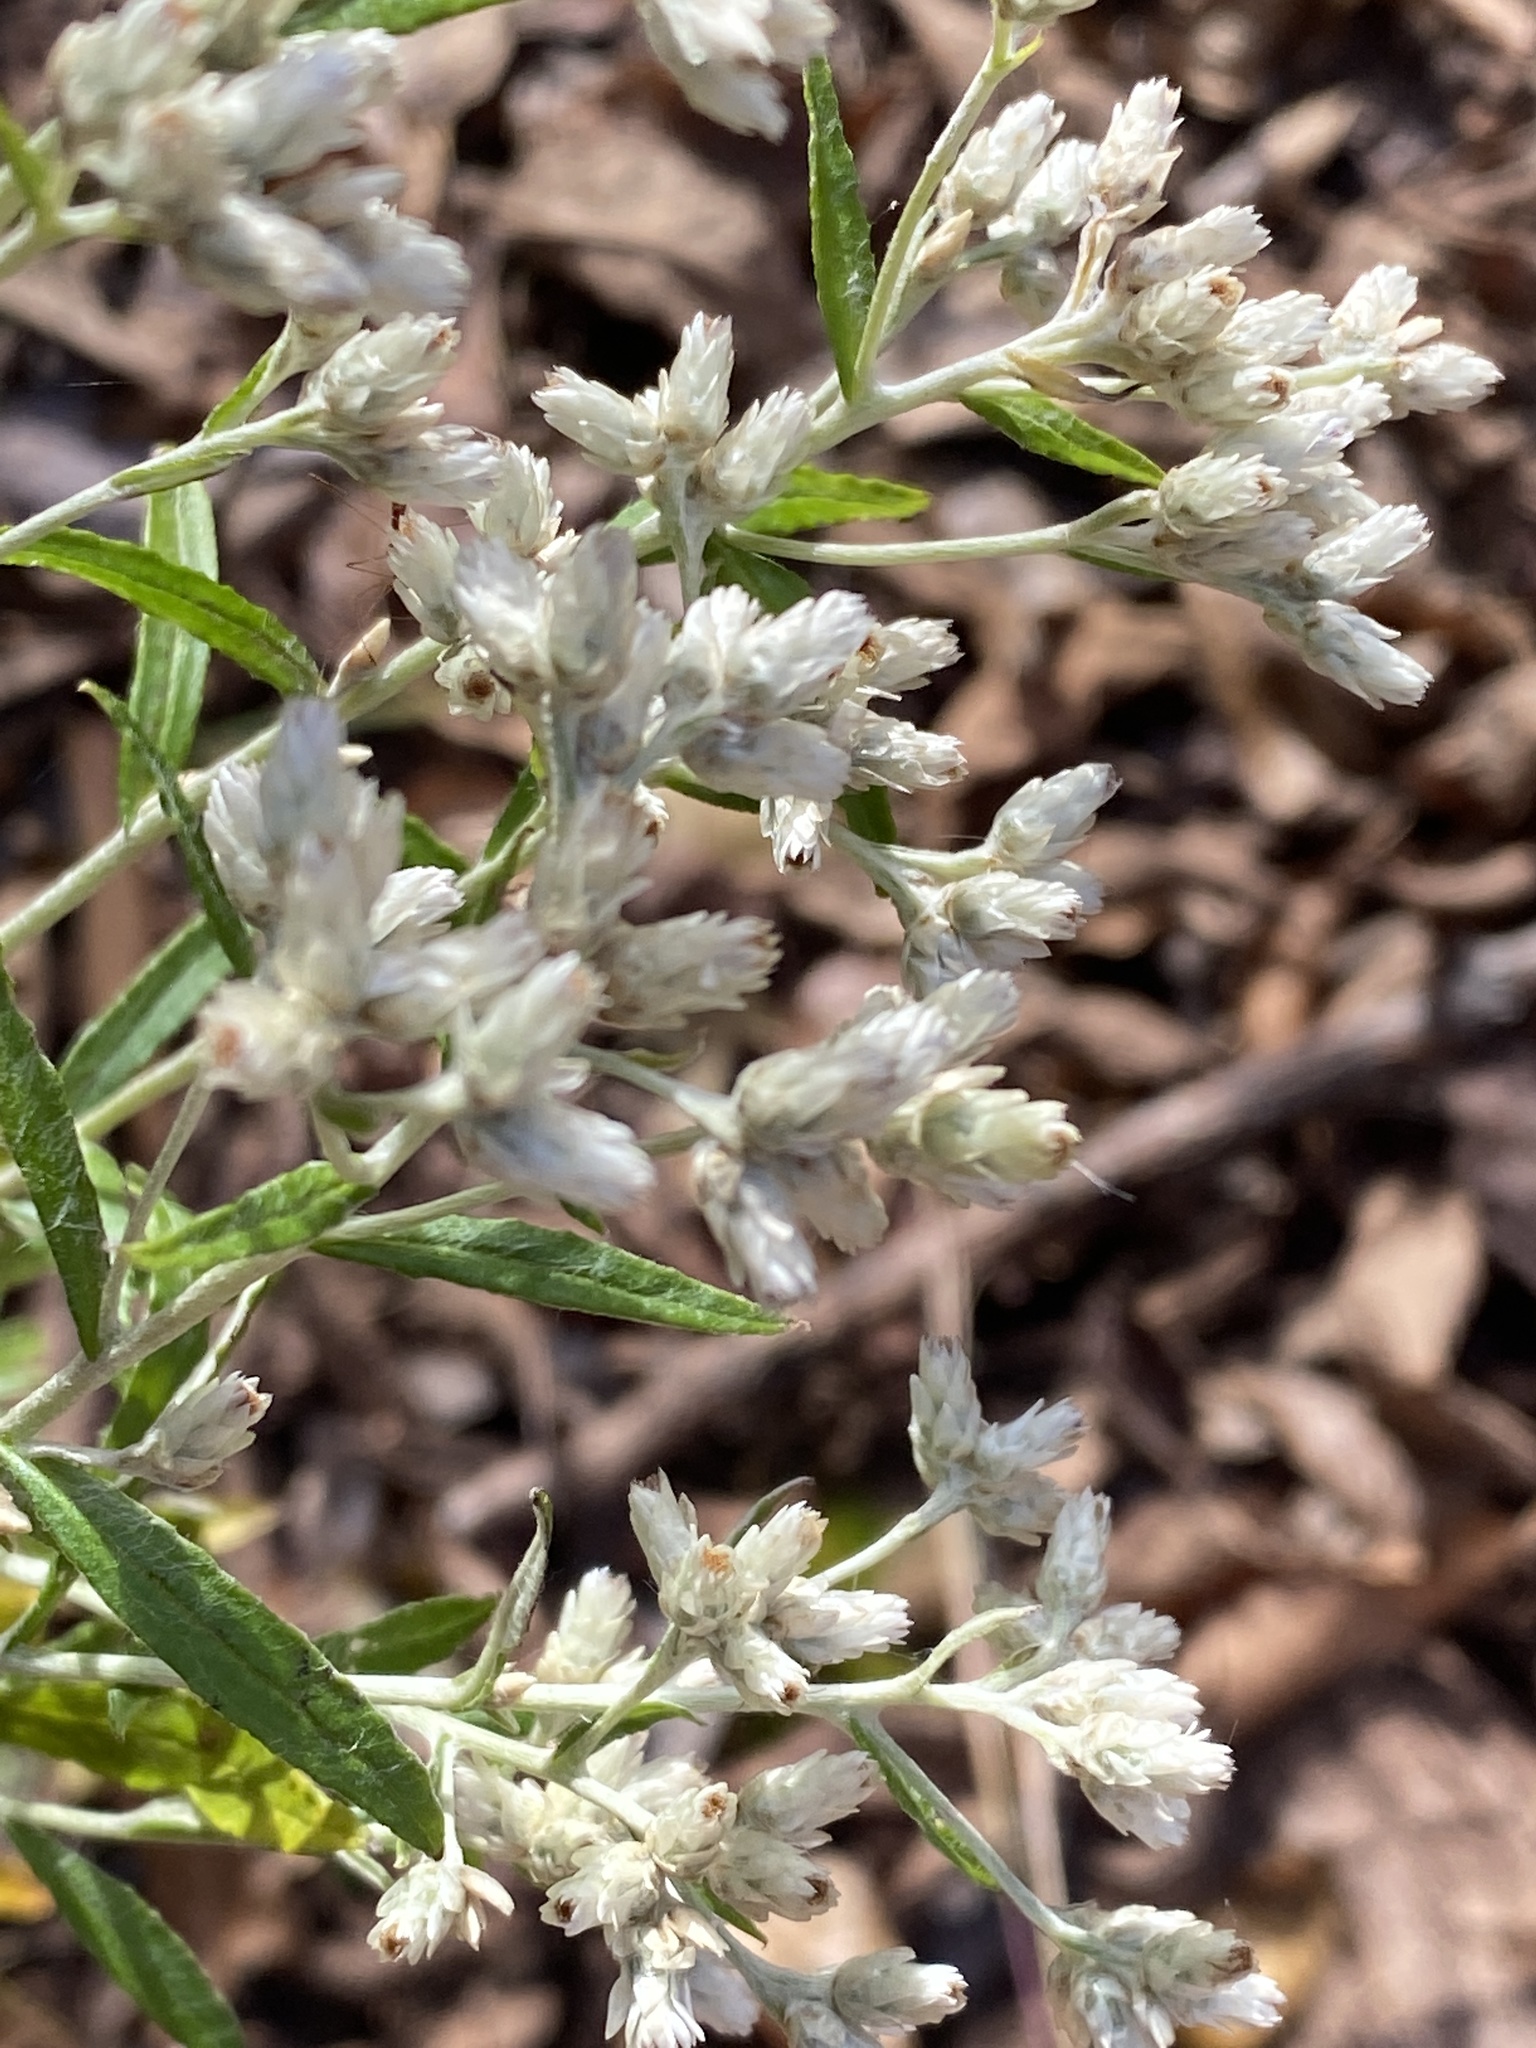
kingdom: Plantae
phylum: Tracheophyta
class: Magnoliopsida
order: Asterales
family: Asteraceae
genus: Pseudognaphalium
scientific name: Pseudognaphalium obtusifolium
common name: Eastern rabbit-tobacco
